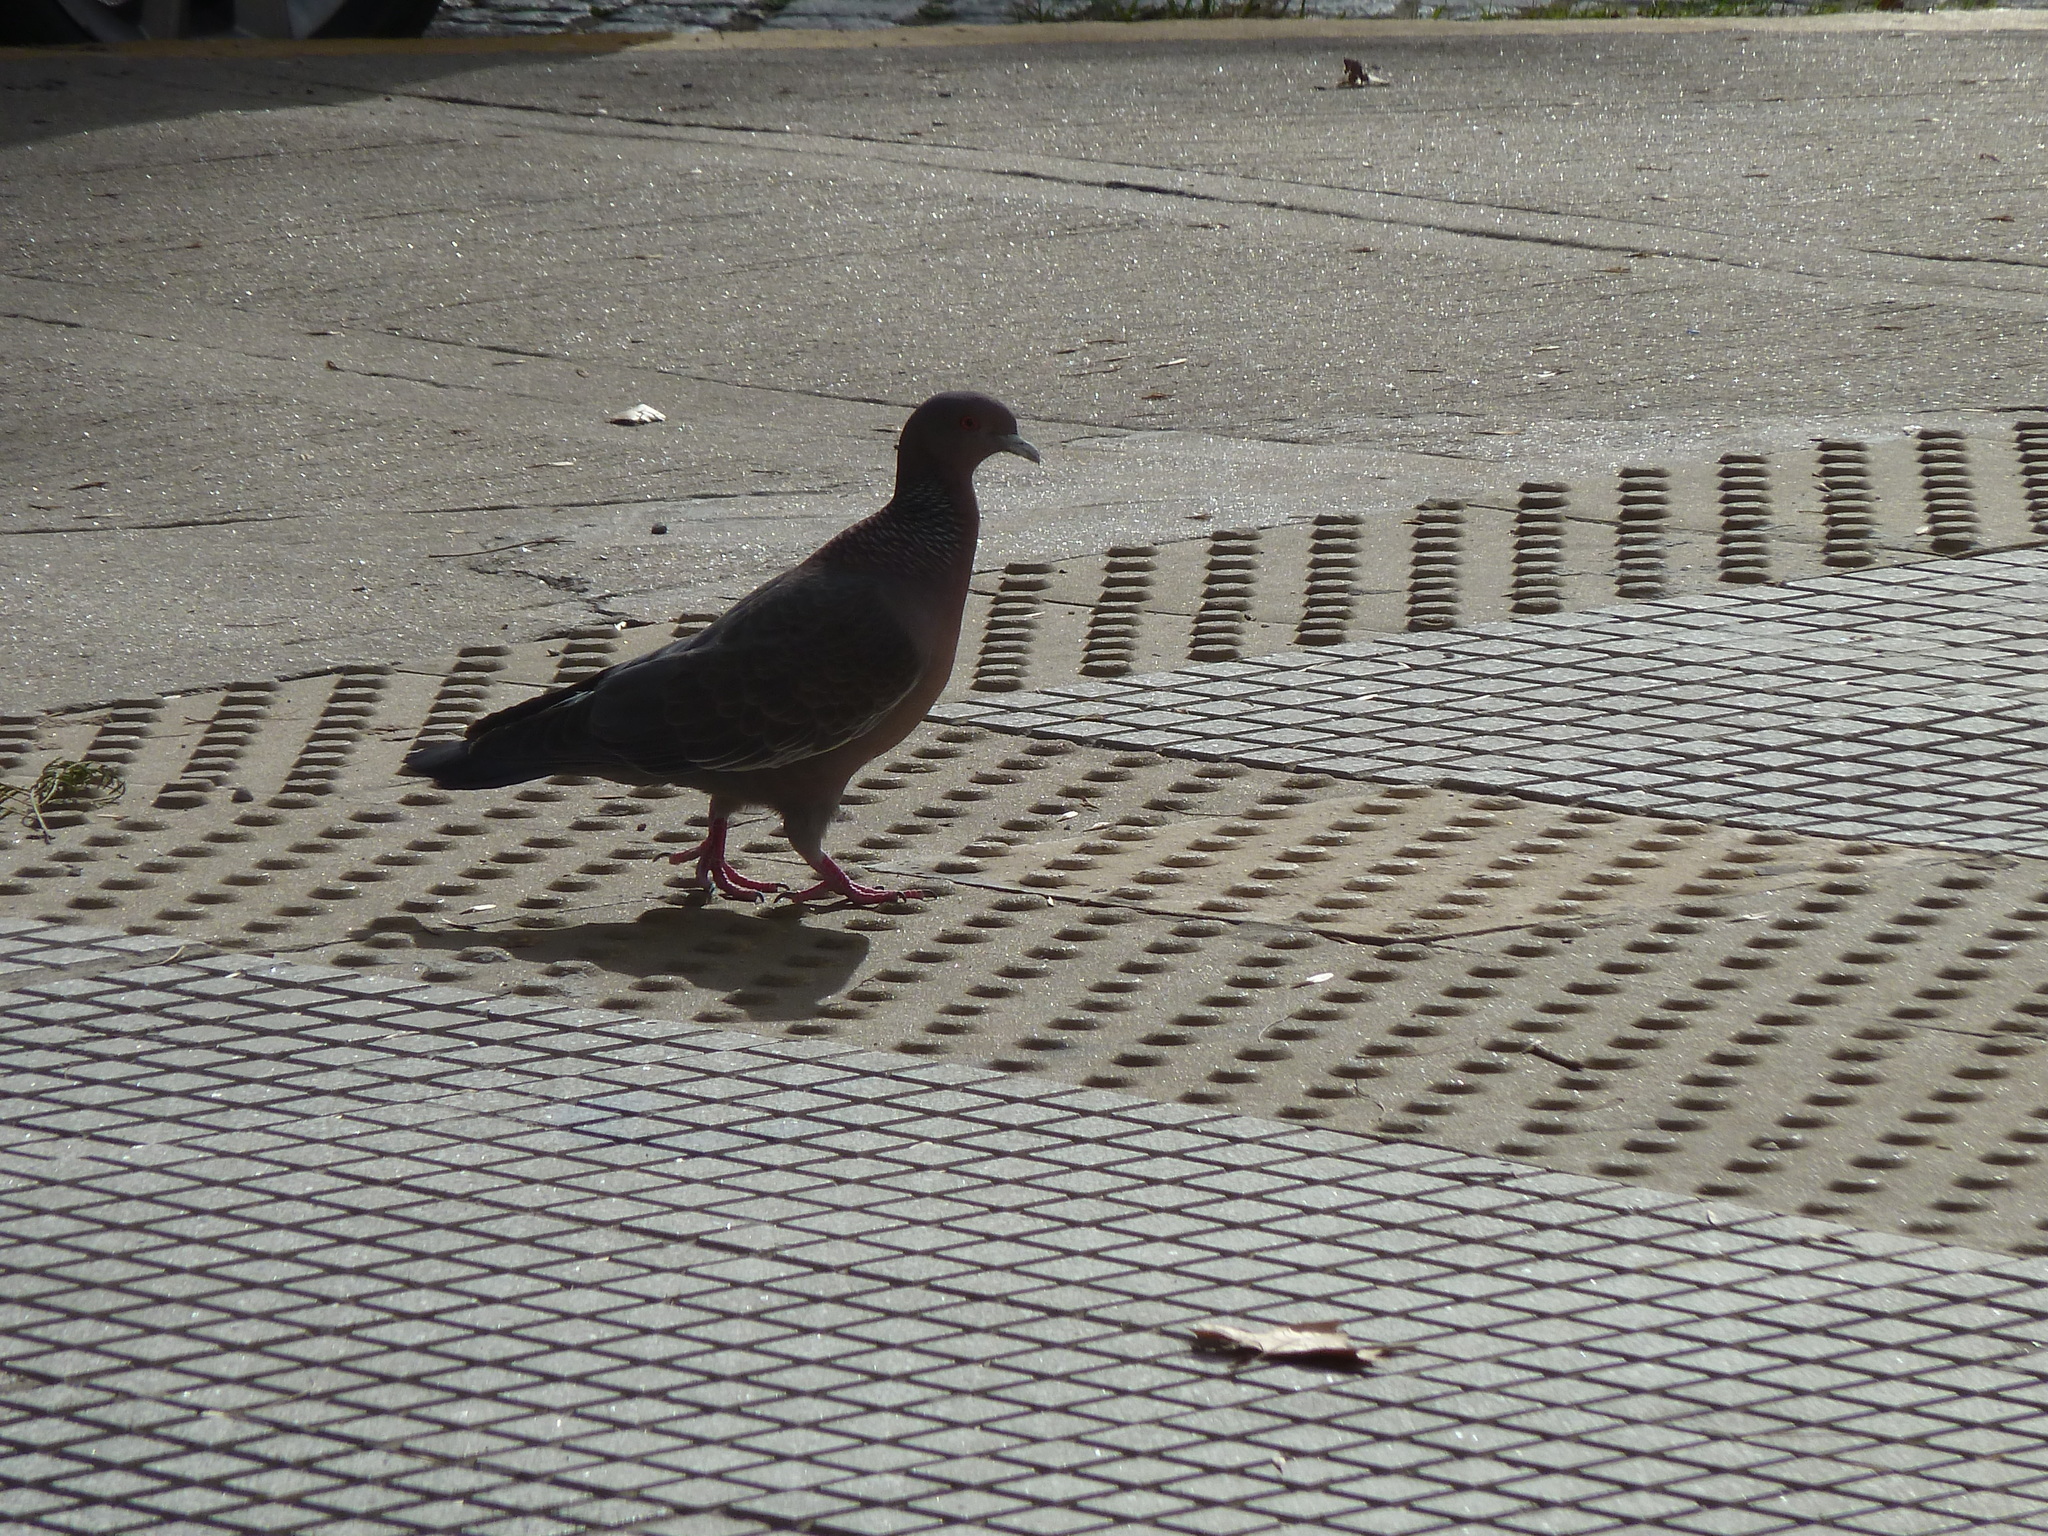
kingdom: Animalia
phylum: Chordata
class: Aves
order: Columbiformes
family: Columbidae
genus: Patagioenas
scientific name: Patagioenas picazuro
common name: Picazuro pigeon
